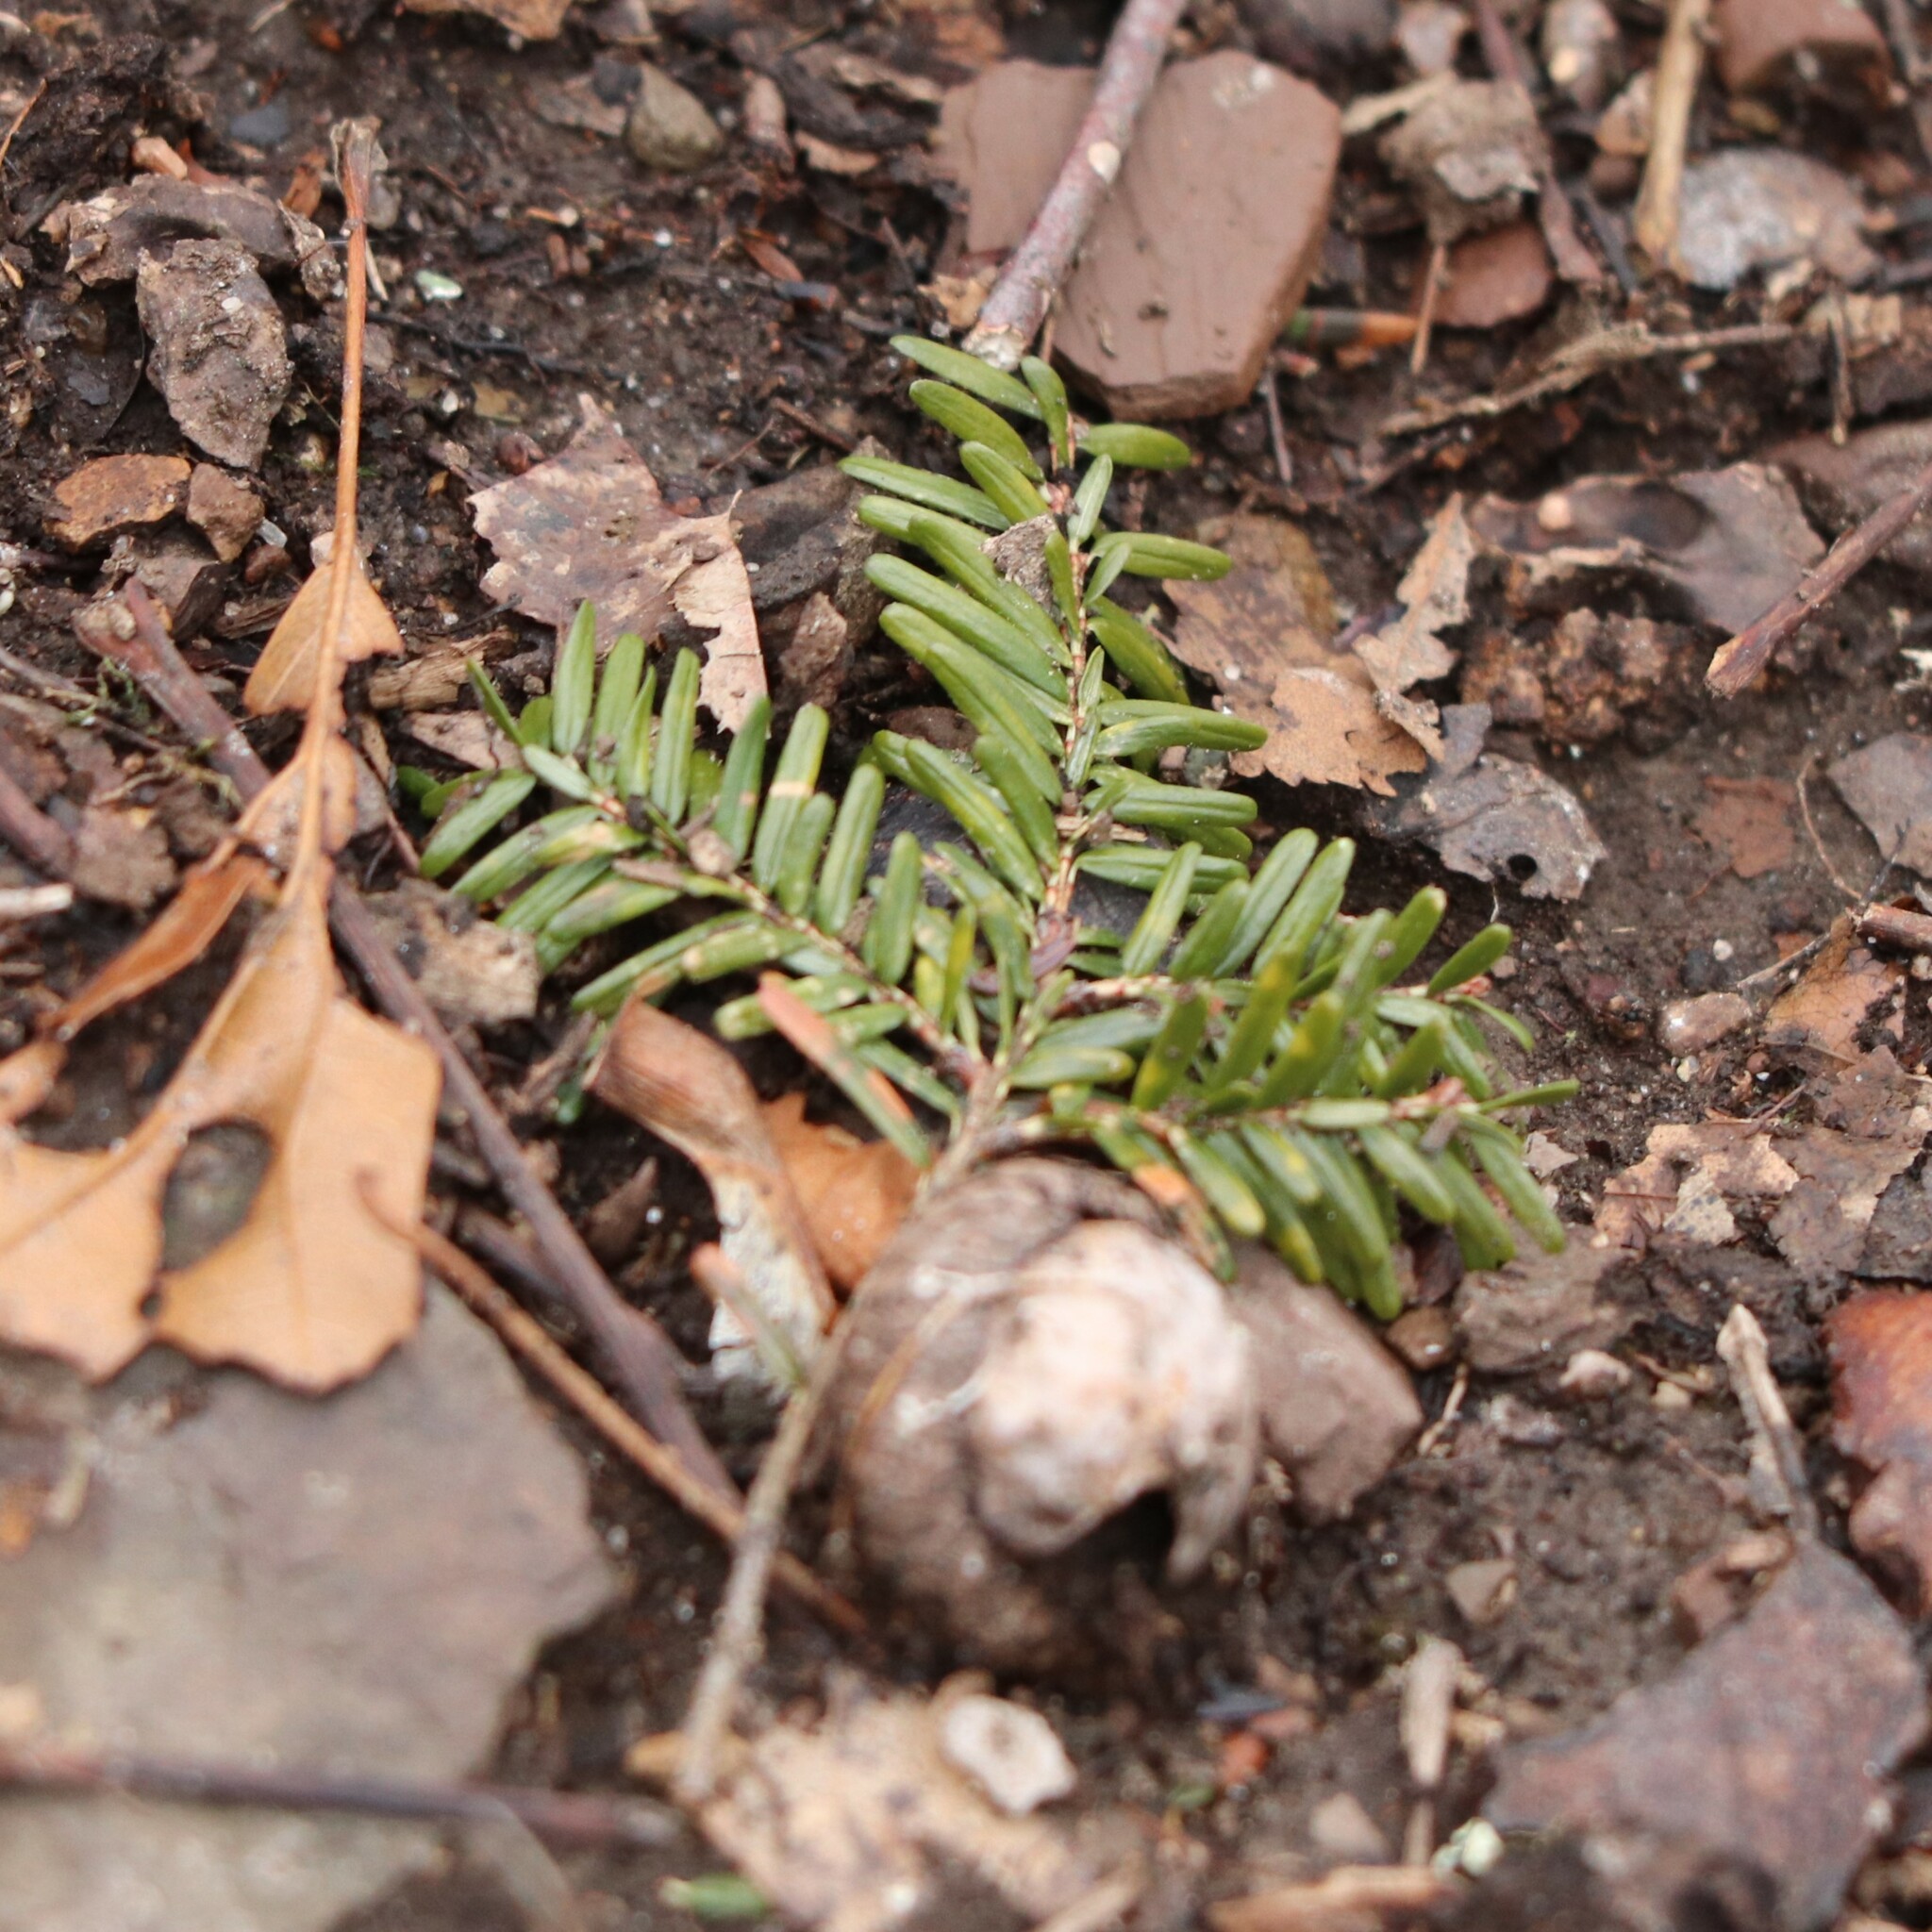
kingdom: Plantae
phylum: Tracheophyta
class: Pinopsida
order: Pinales
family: Pinaceae
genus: Tsuga
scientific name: Tsuga canadensis
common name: Eastern hemlock
